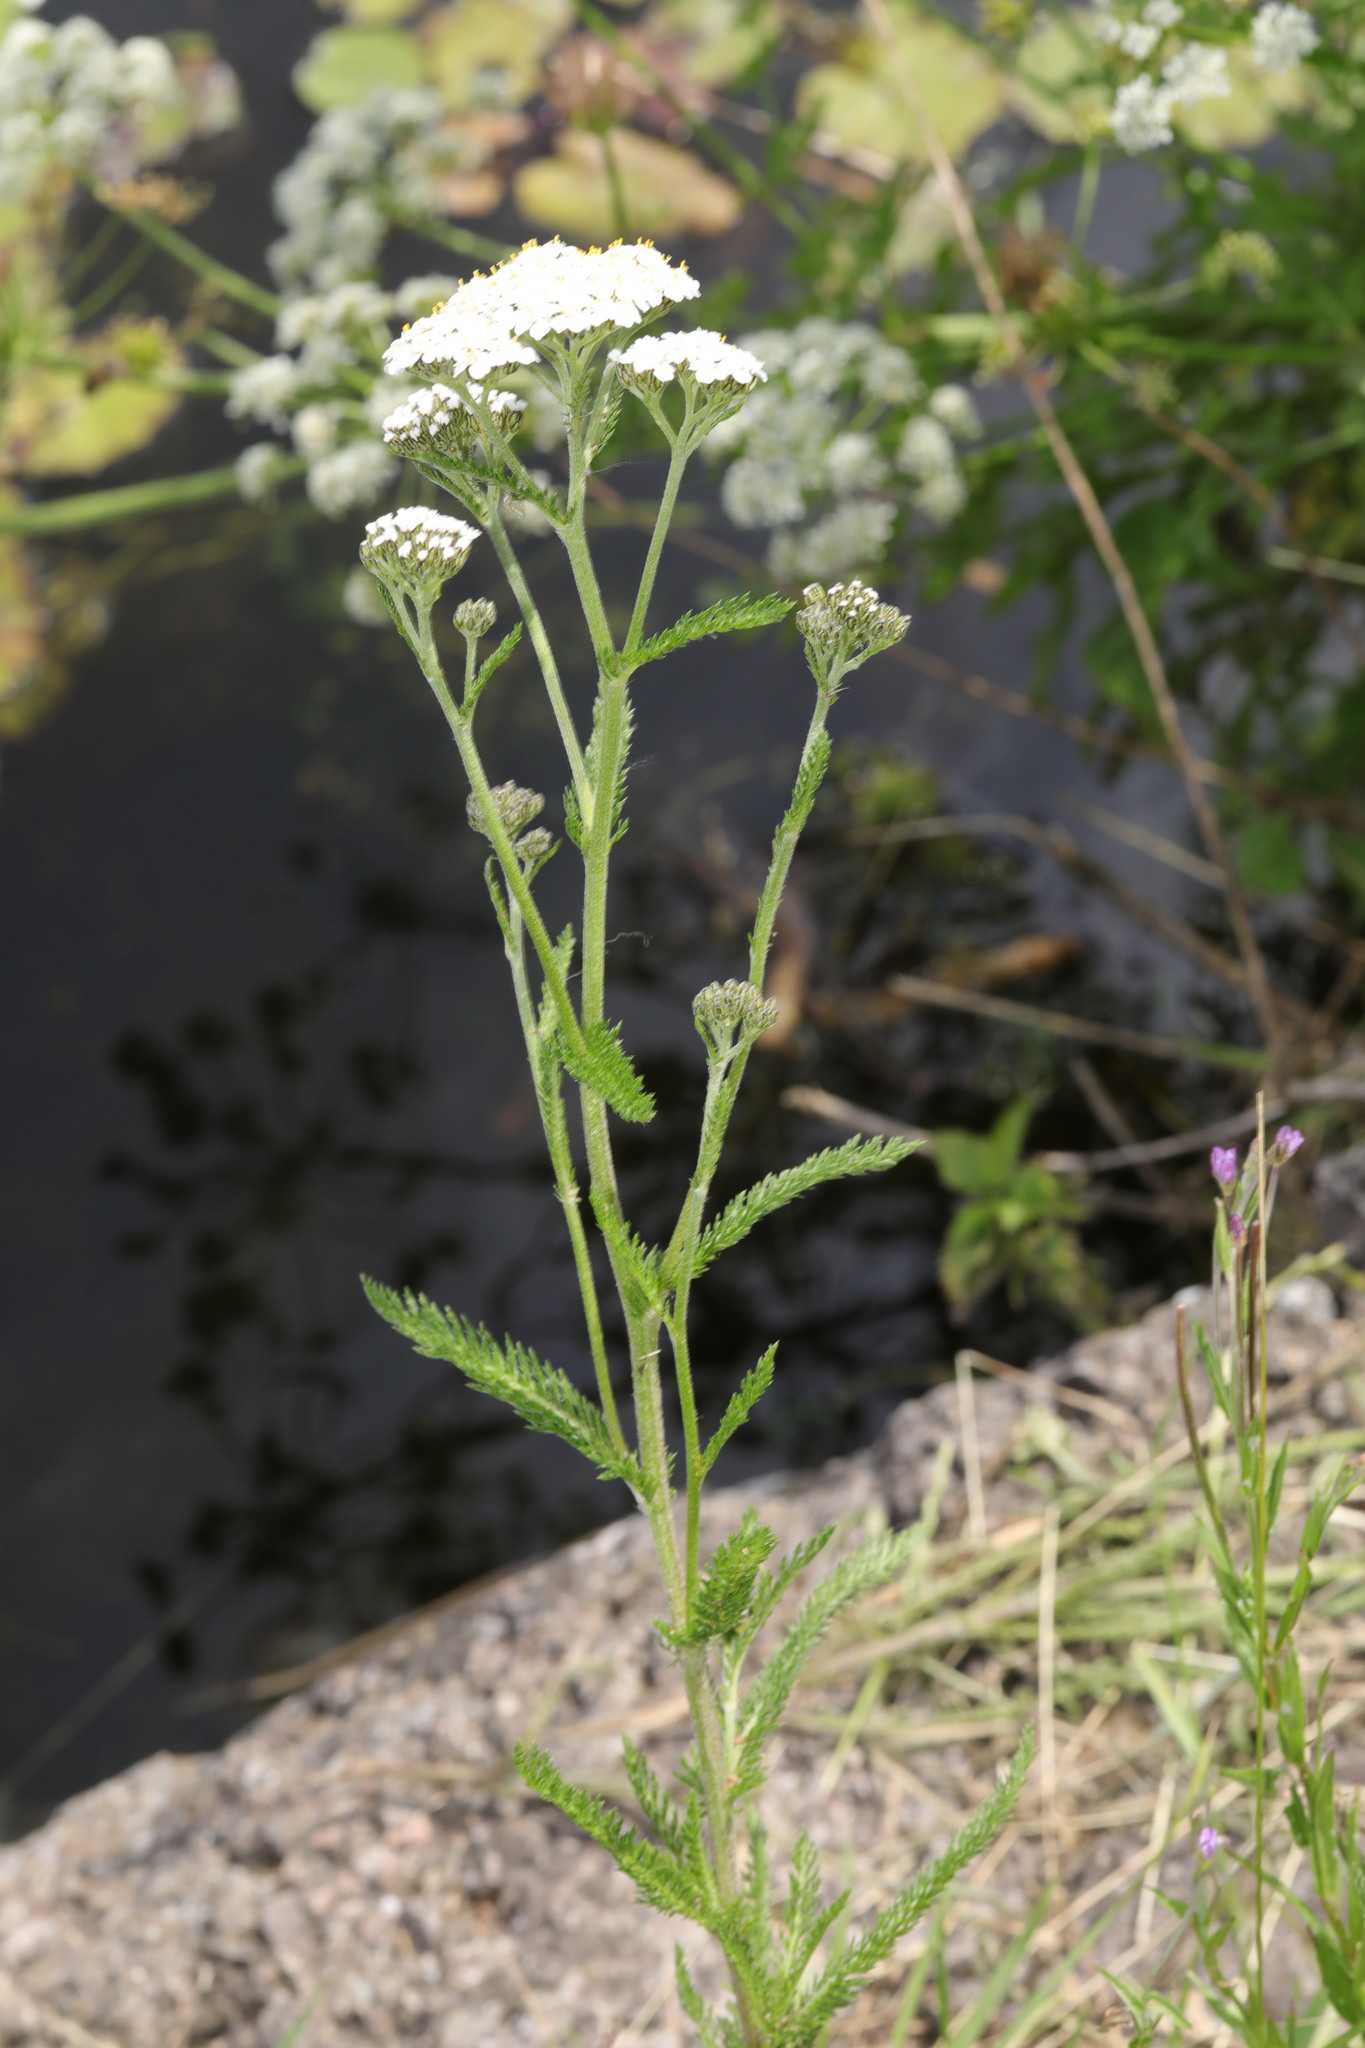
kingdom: Plantae
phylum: Tracheophyta
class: Magnoliopsida
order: Asterales
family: Asteraceae
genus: Achillea
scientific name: Achillea millefolium
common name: Yarrow
